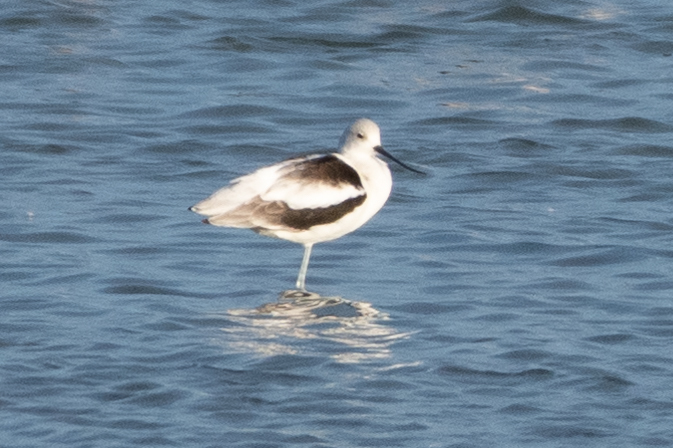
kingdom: Animalia
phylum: Chordata
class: Aves
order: Charadriiformes
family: Recurvirostridae
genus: Recurvirostra
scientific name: Recurvirostra americana
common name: American avocet
